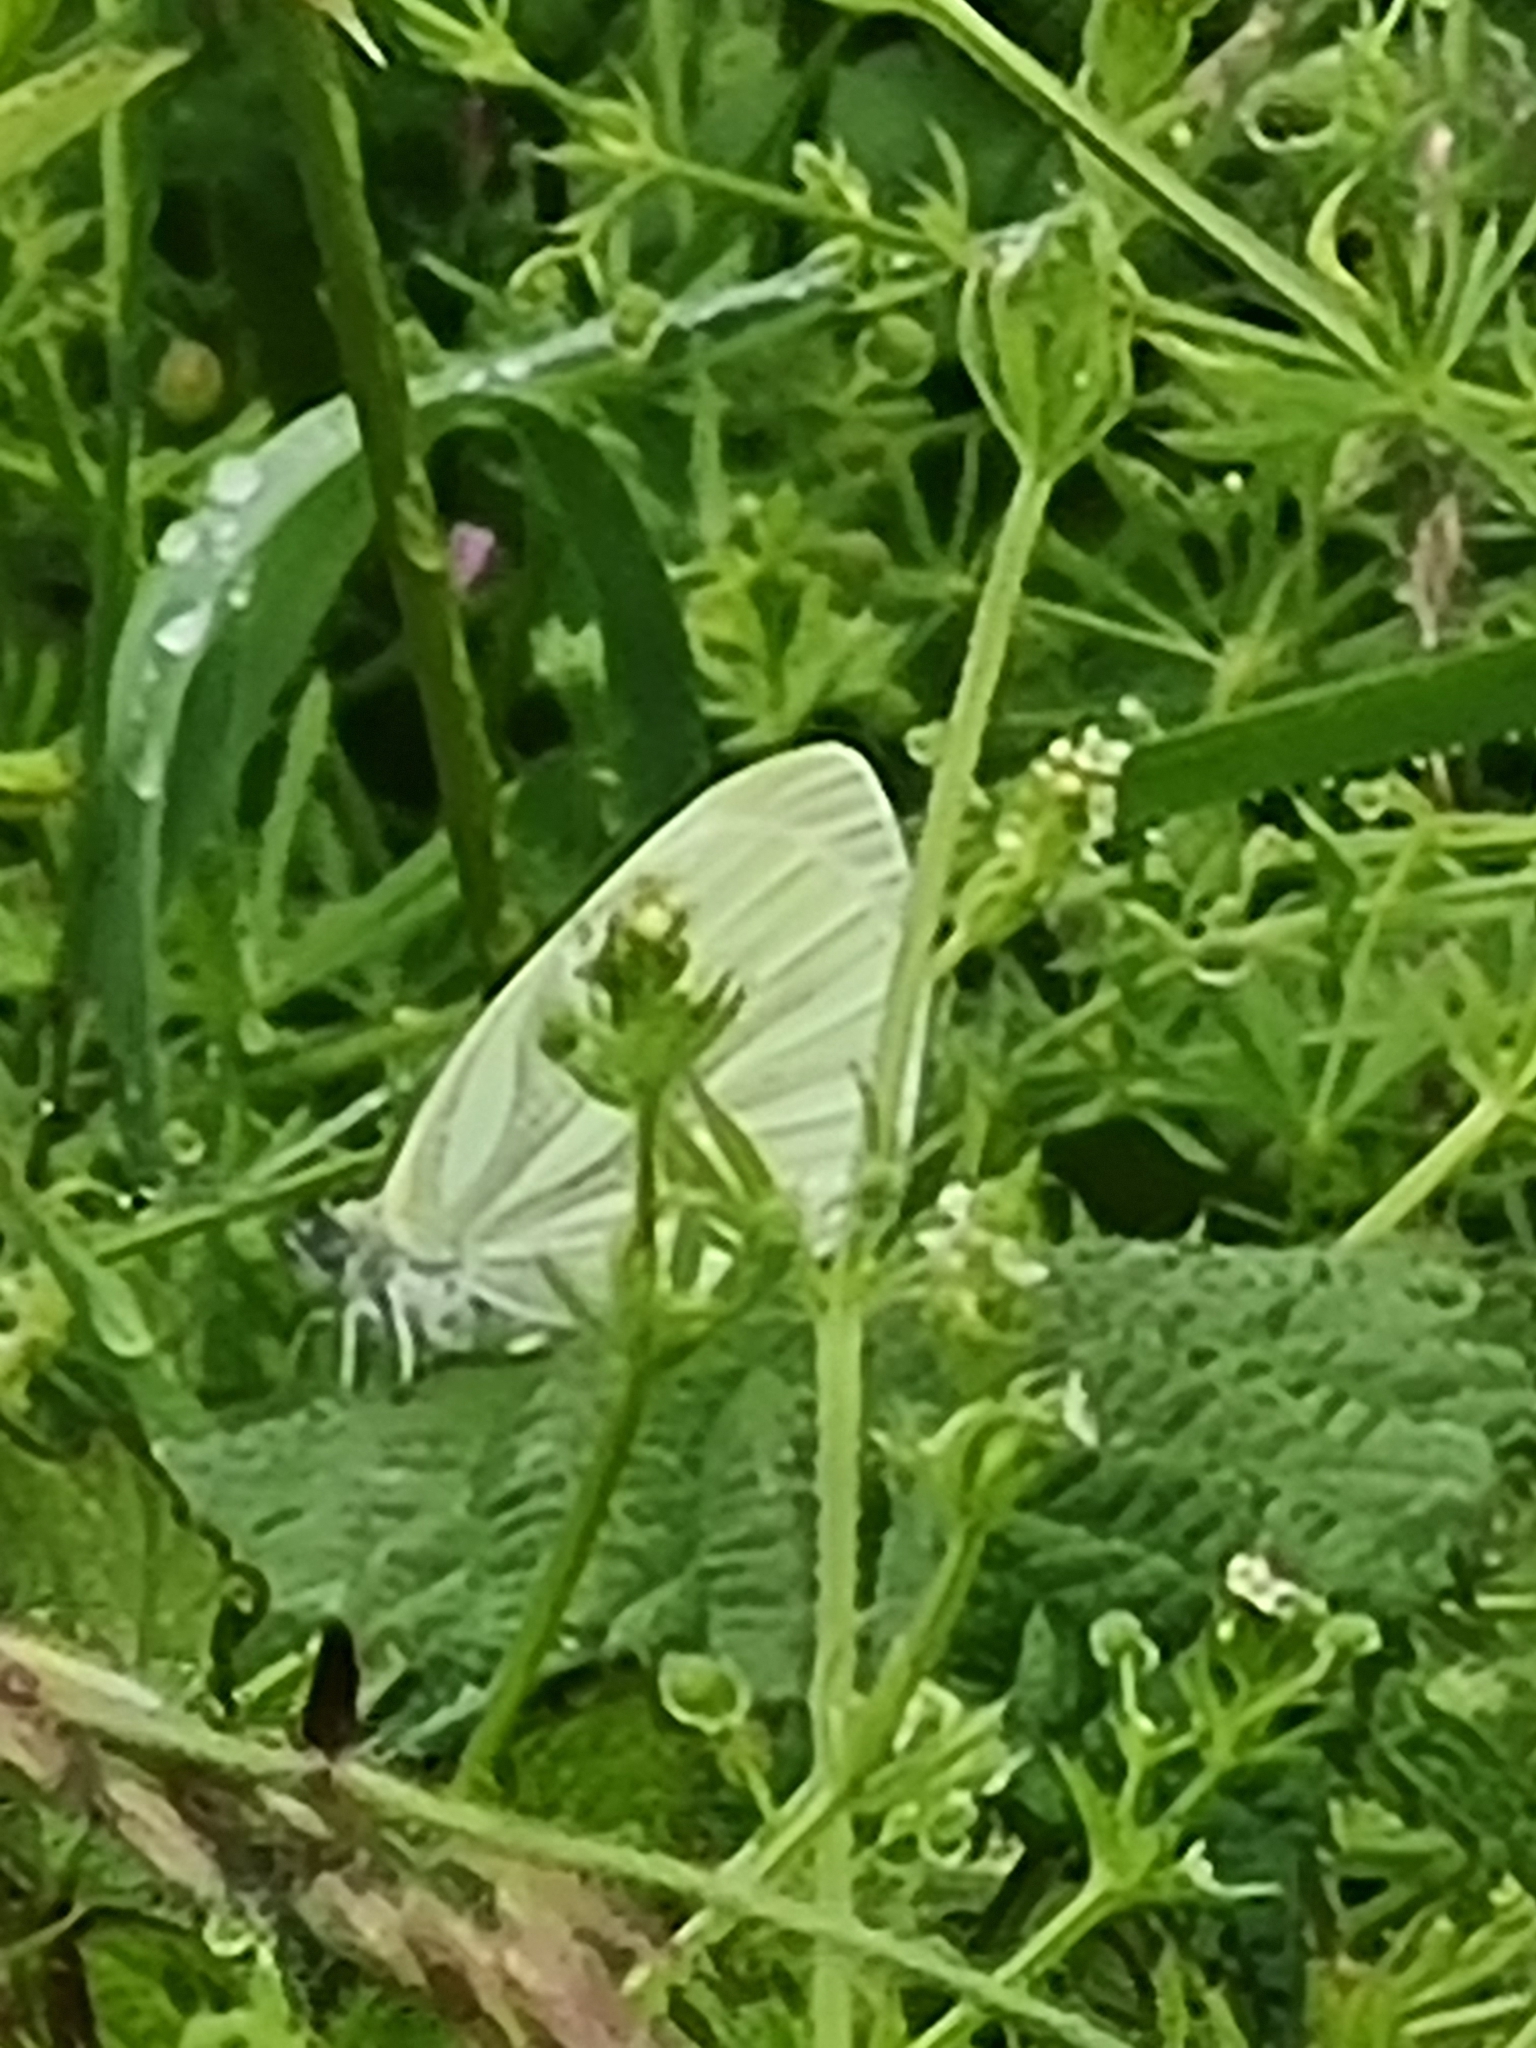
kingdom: Animalia
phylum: Arthropoda
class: Insecta
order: Lepidoptera
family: Pieridae
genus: Pieris
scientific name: Pieris napi
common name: Green-veined white
